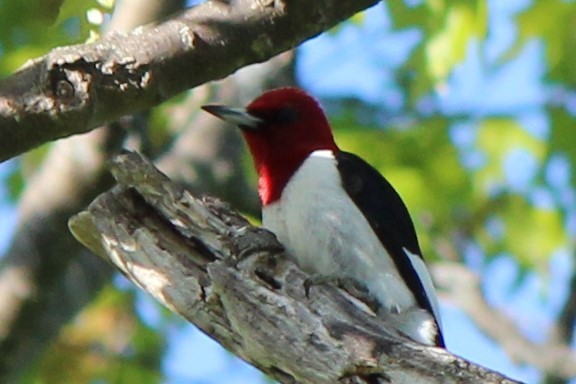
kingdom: Animalia
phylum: Chordata
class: Aves
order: Piciformes
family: Picidae
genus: Melanerpes
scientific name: Melanerpes erythrocephalus
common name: Red-headed woodpecker
